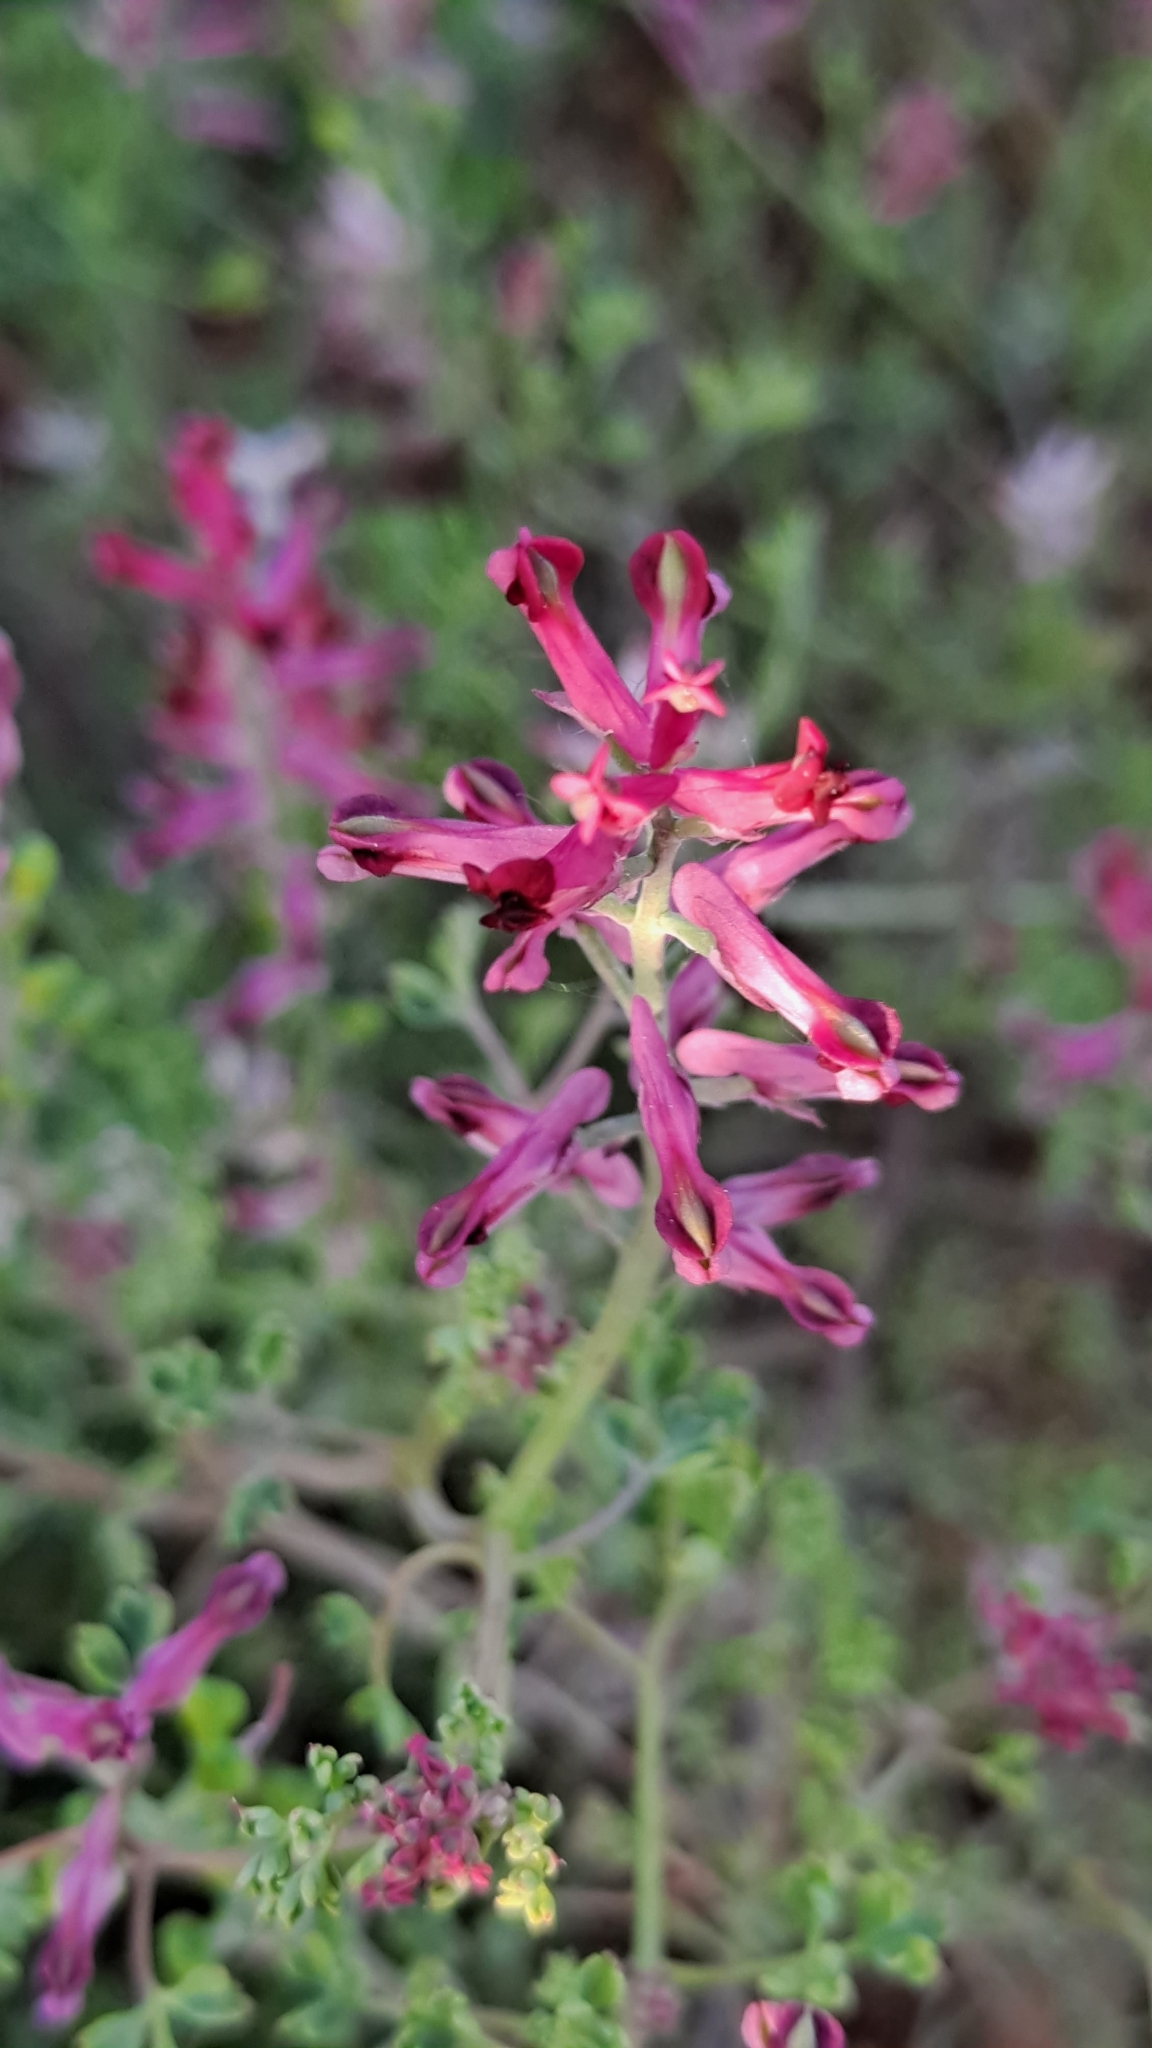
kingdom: Plantae
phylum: Tracheophyta
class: Magnoliopsida
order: Ranunculales
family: Papaveraceae
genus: Fumaria
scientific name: Fumaria officinalis
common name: Common fumitory
